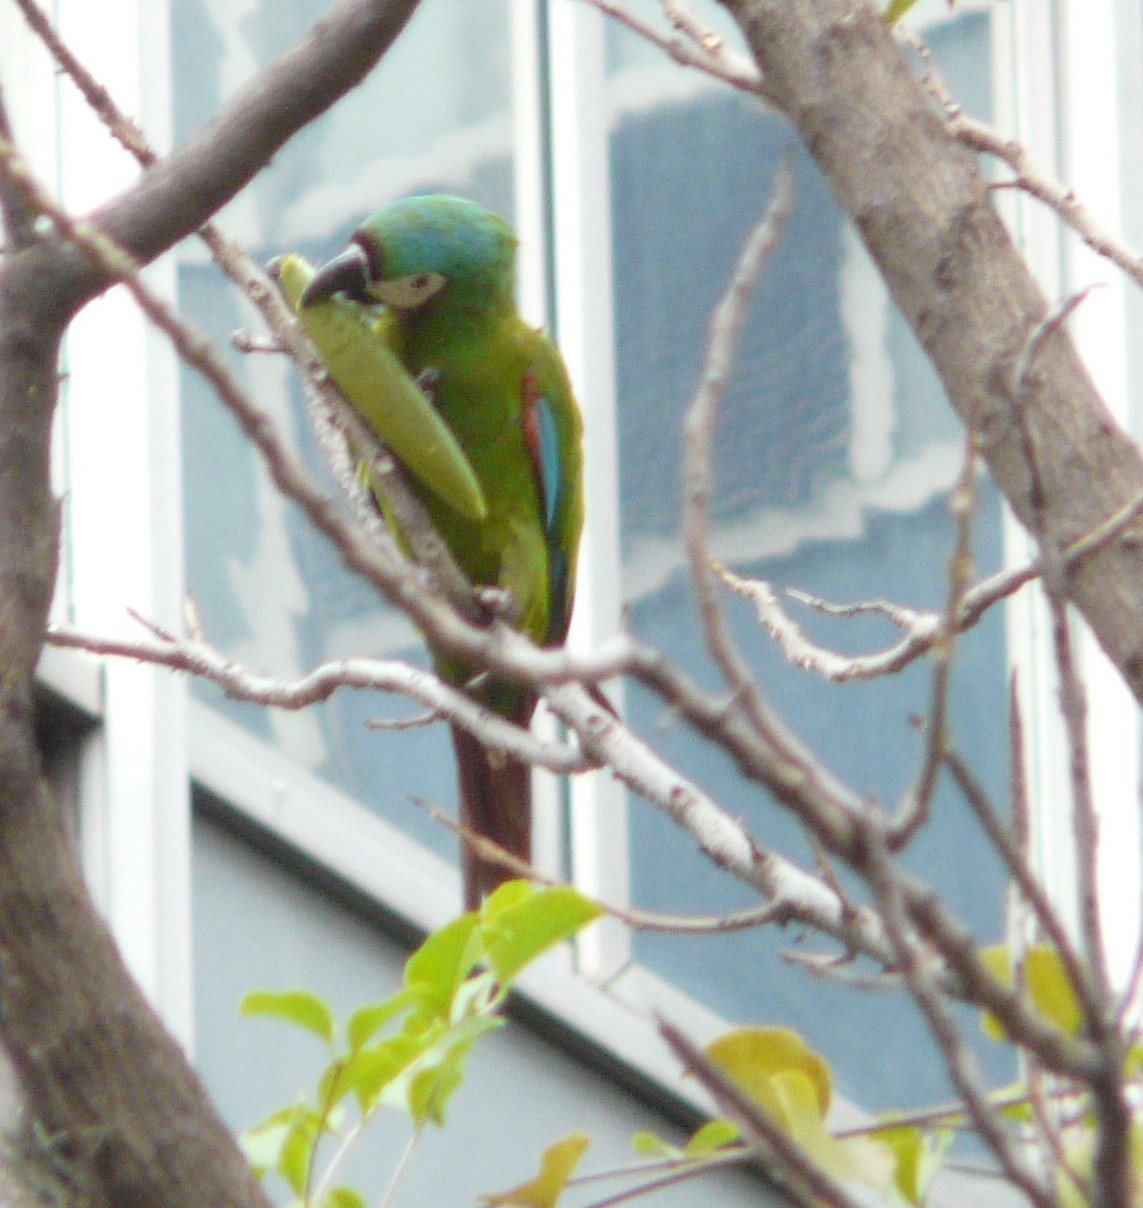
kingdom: Animalia
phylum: Chordata
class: Aves
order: Psittaciformes
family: Psittacidae
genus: Ara
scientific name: Ara severus
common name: Chestnut-fronted macaw
